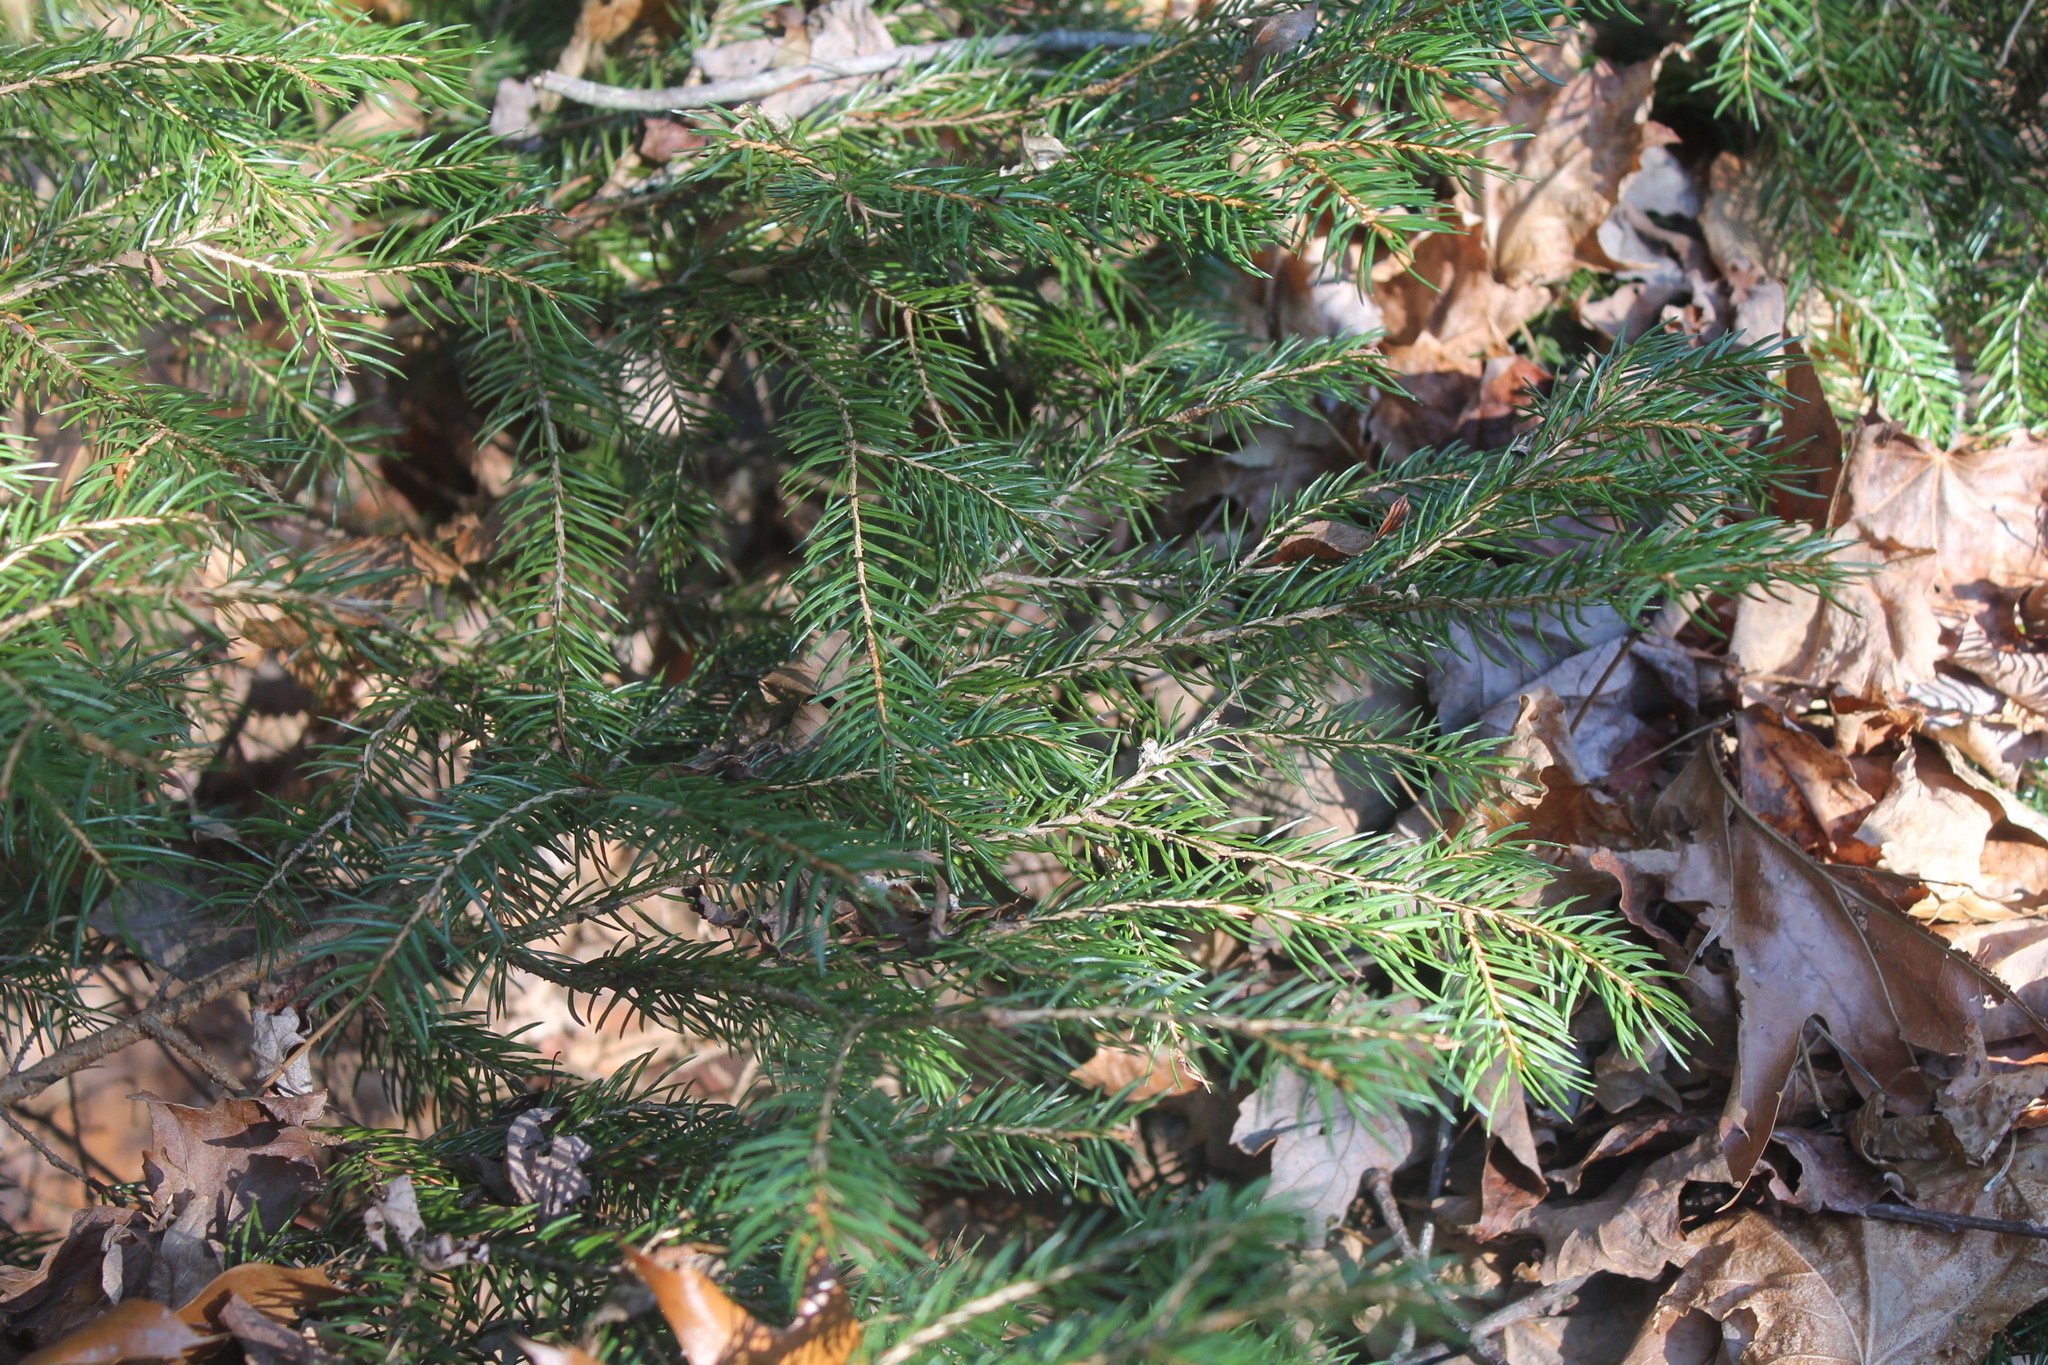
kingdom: Plantae
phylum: Tracheophyta
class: Pinopsida
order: Pinales
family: Pinaceae
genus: Picea
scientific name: Picea abies
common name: Norway spruce
